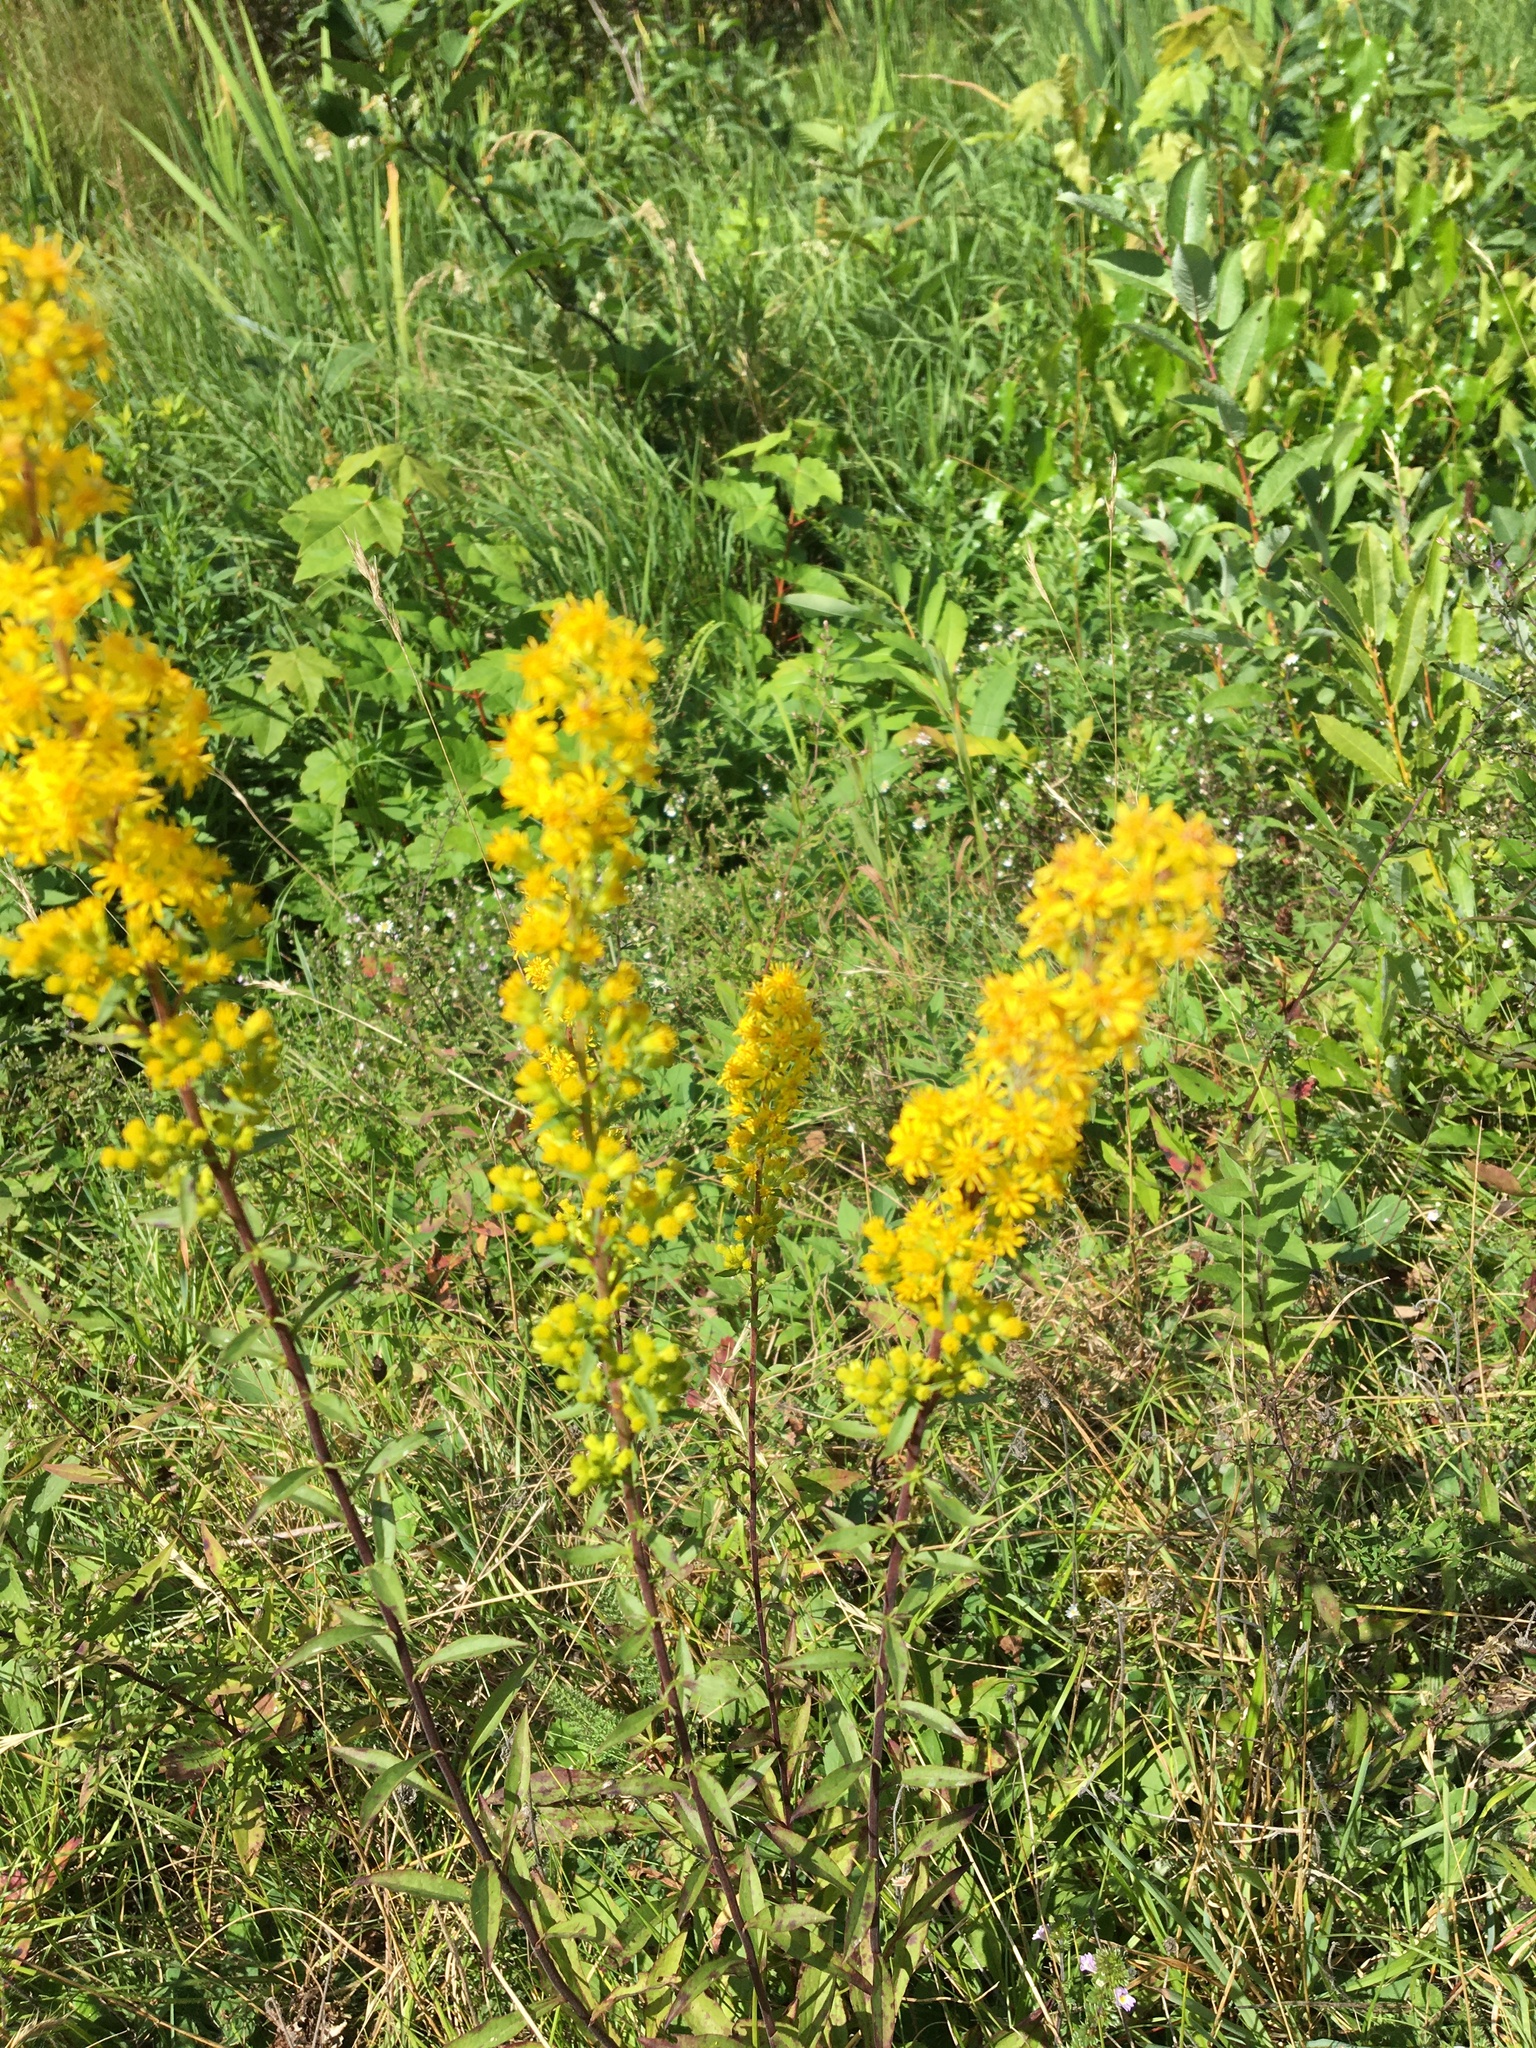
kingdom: Plantae
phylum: Tracheophyta
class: Magnoliopsida
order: Asterales
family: Asteraceae
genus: Solidago
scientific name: Solidago puberula
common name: Downy goldenrod
